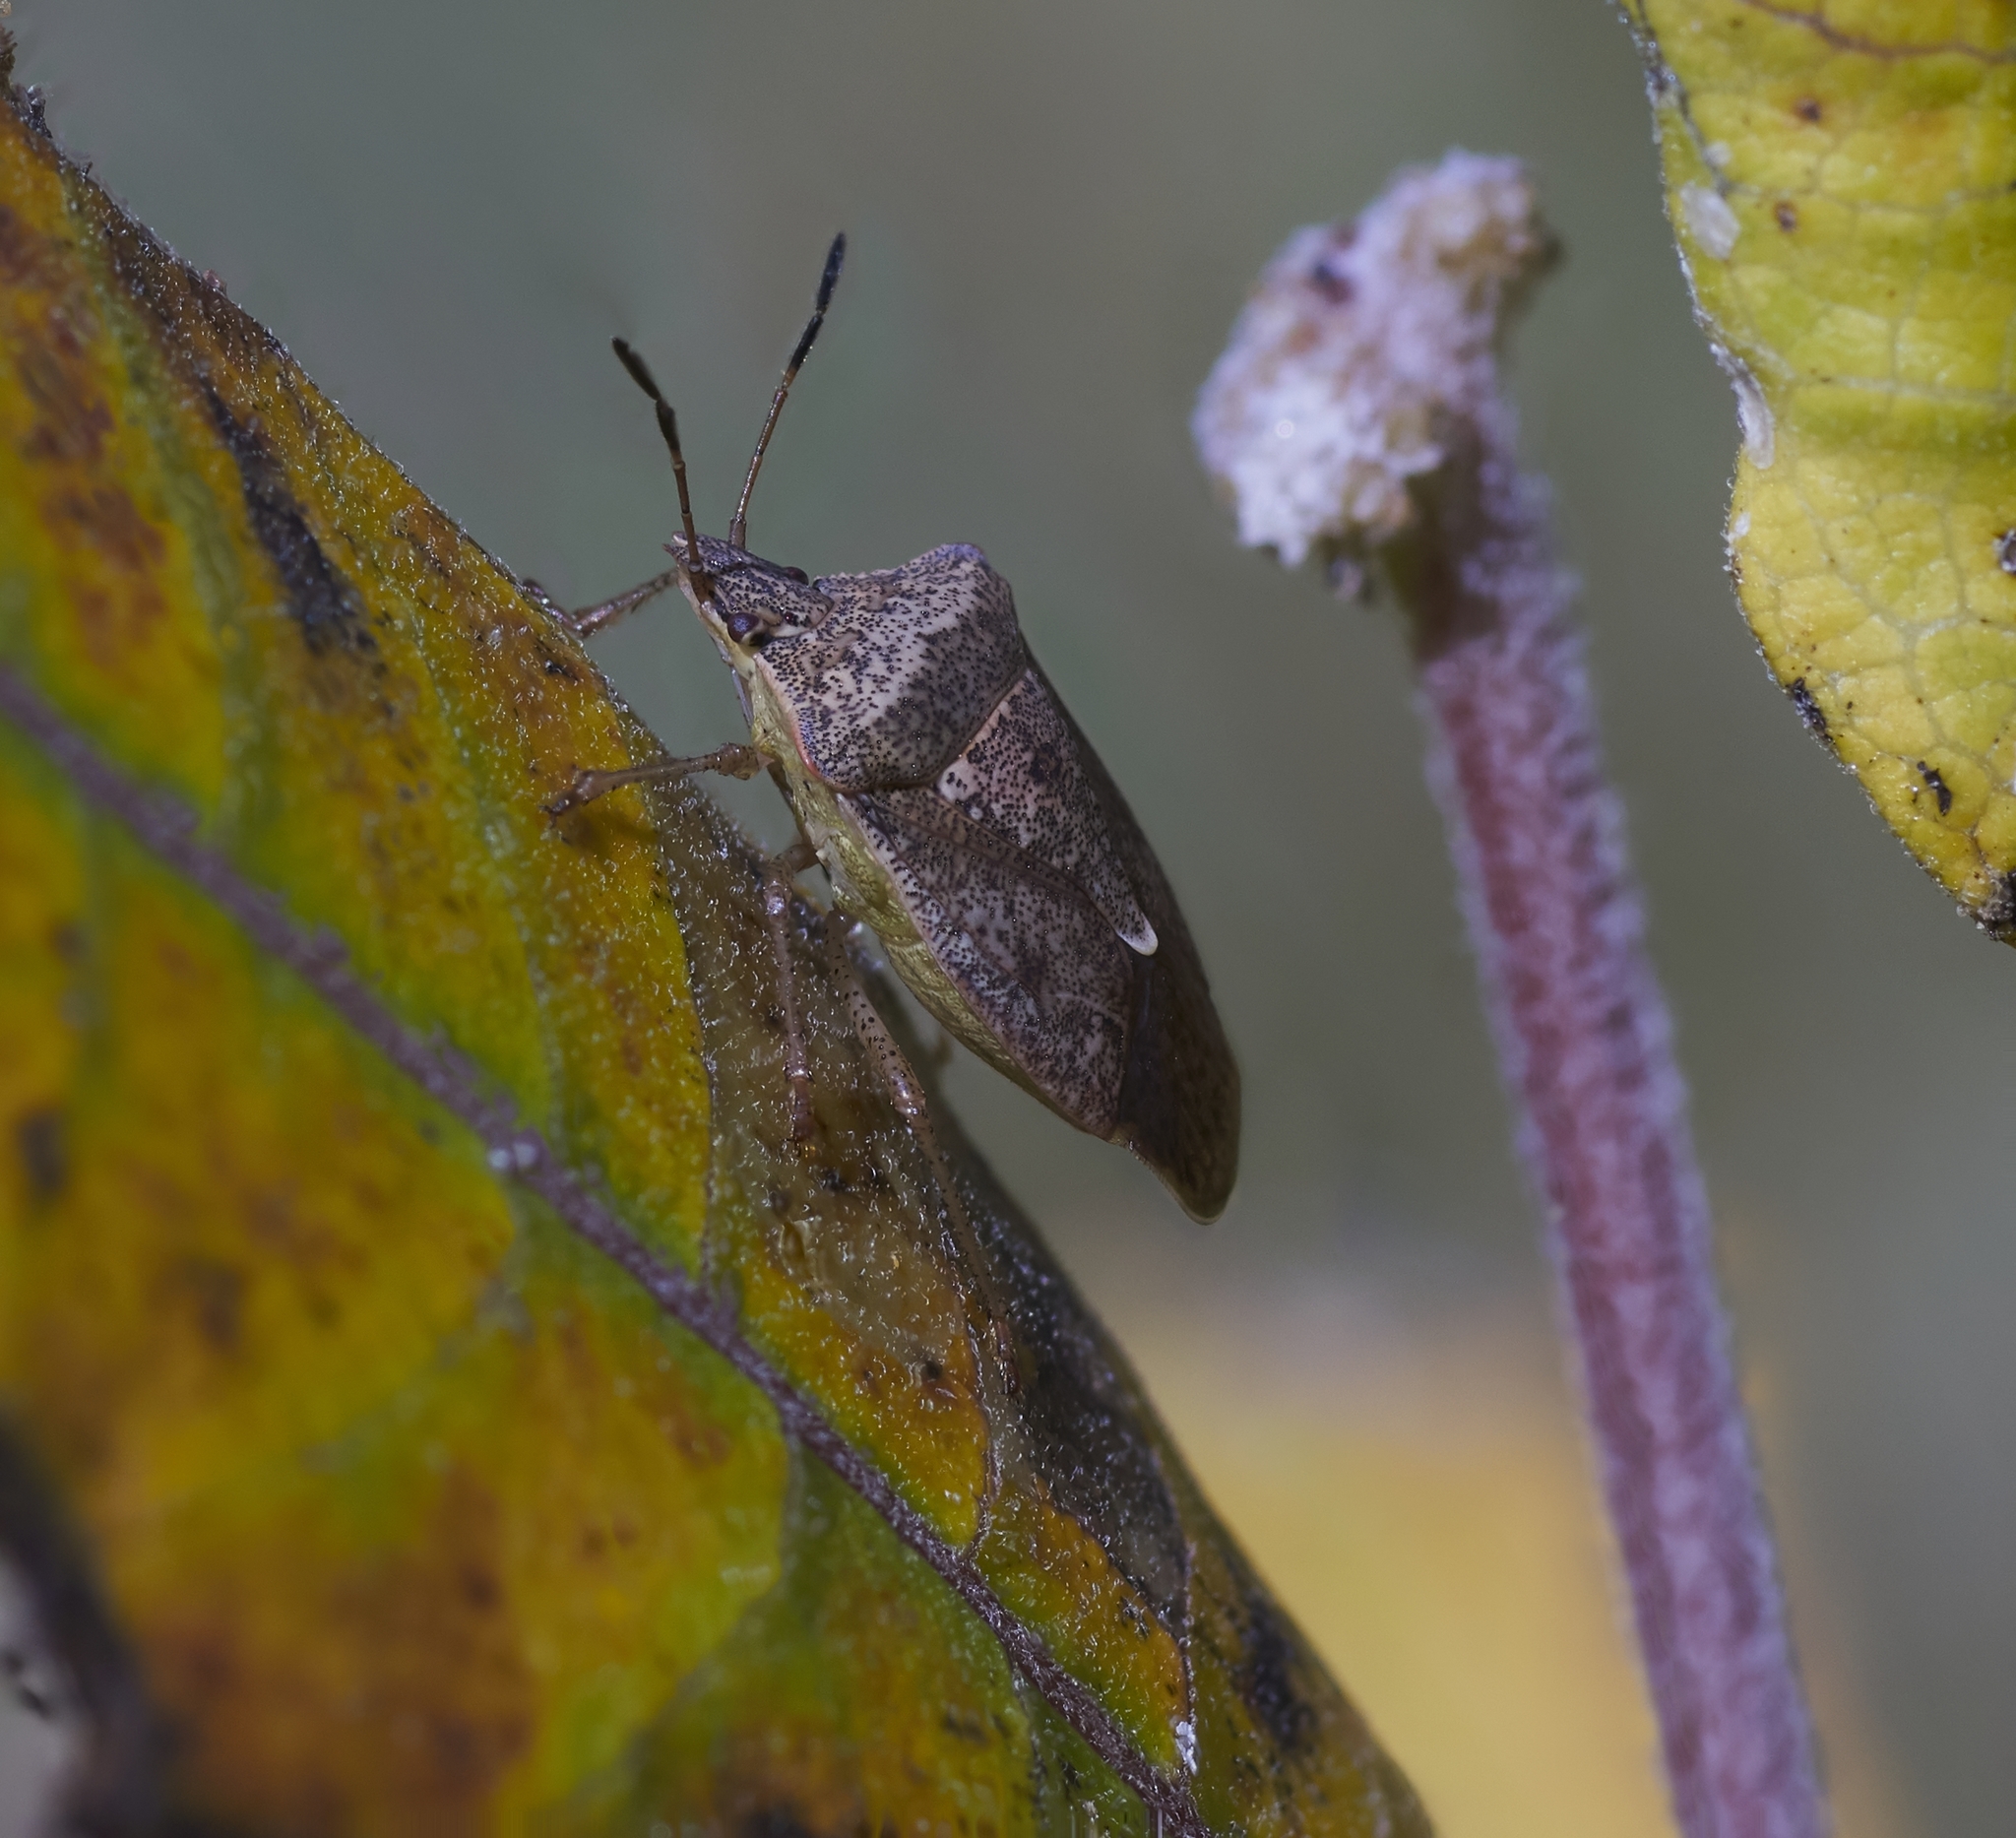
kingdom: Animalia
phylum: Arthropoda
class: Insecta
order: Hemiptera
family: Pentatomidae
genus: Euschistus
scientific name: Euschistus servus
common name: Brown stink bug
